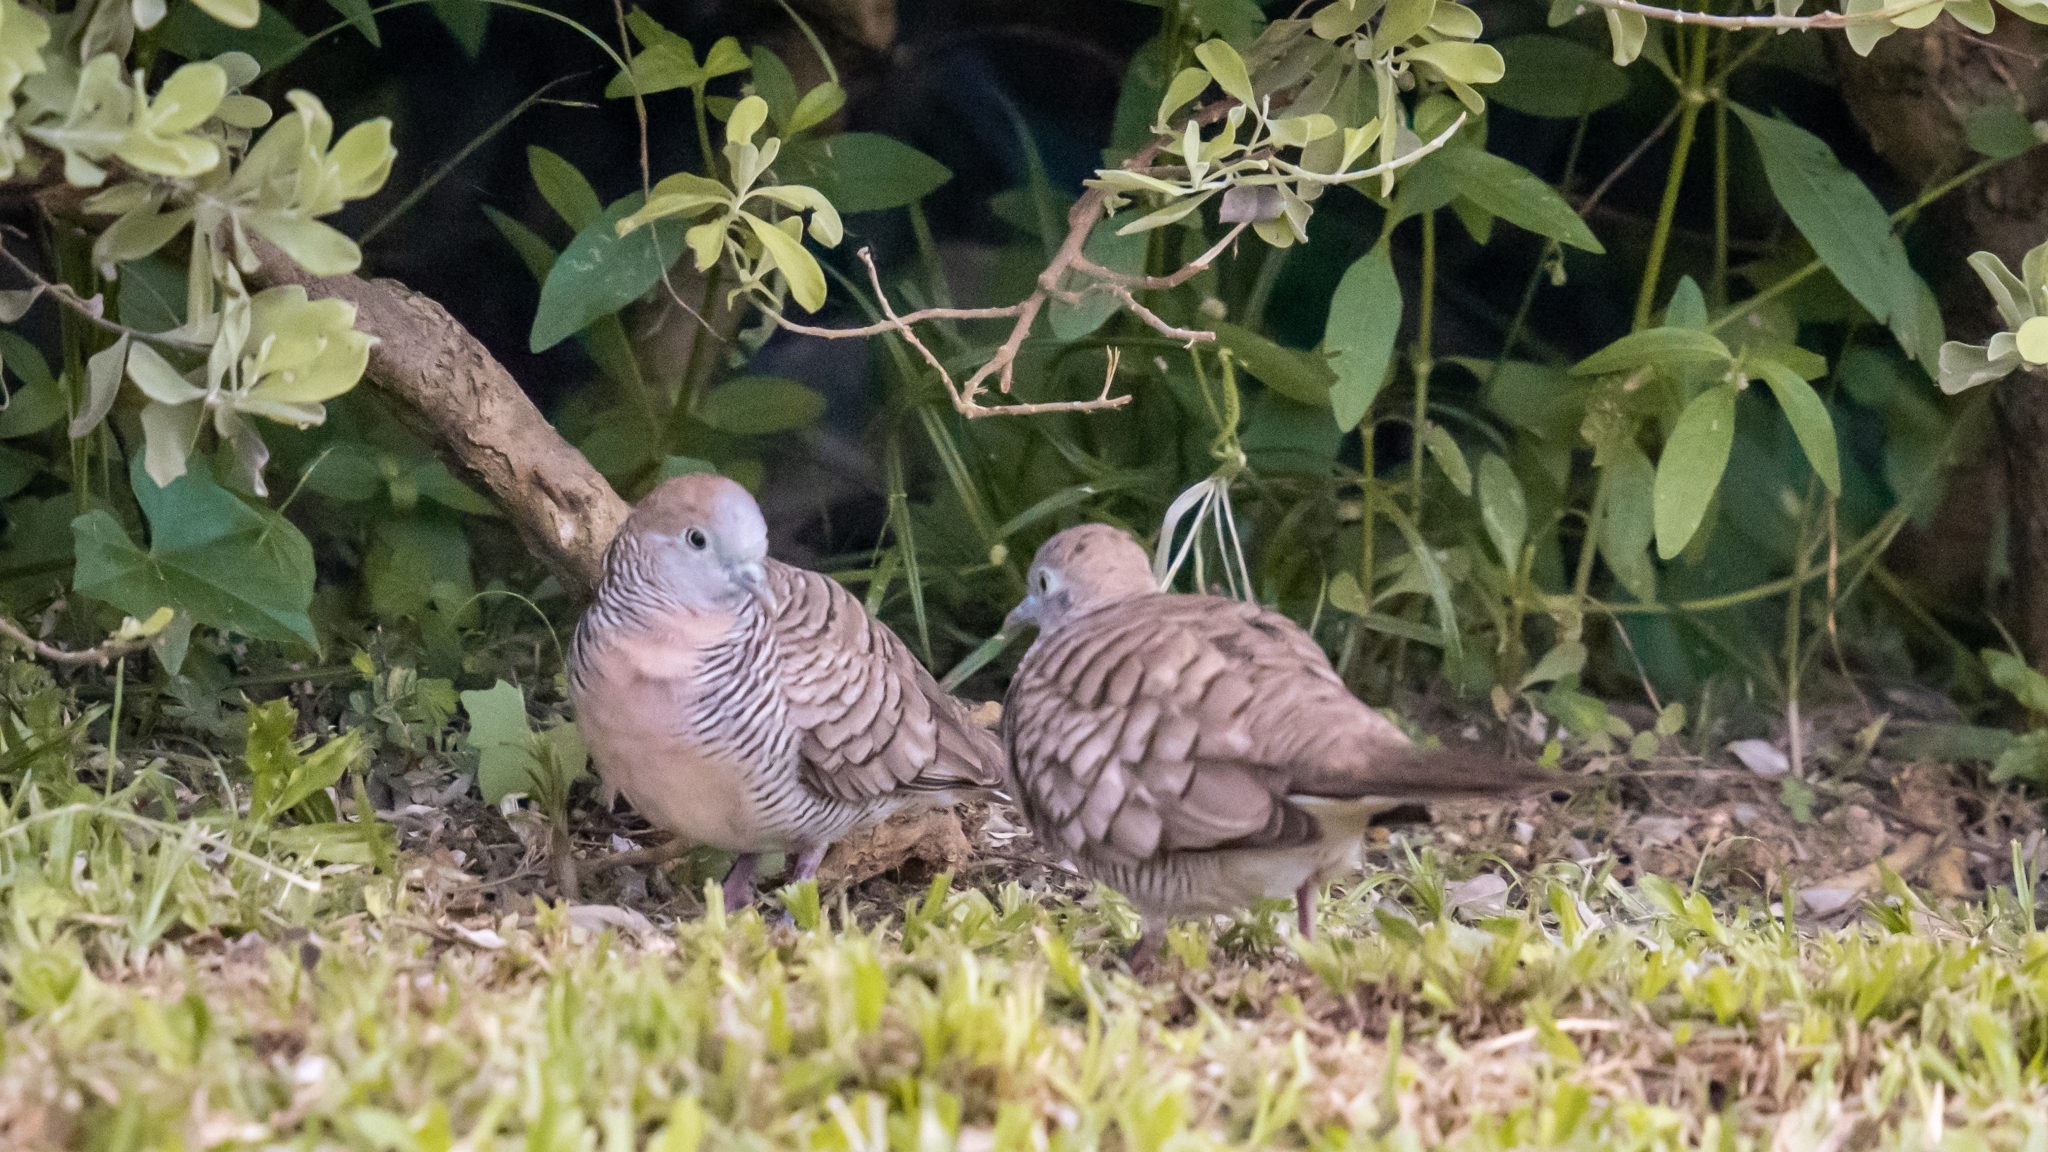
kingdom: Animalia
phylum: Chordata
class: Aves
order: Columbiformes
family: Columbidae
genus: Geopelia
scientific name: Geopelia striata
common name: Zebra dove
